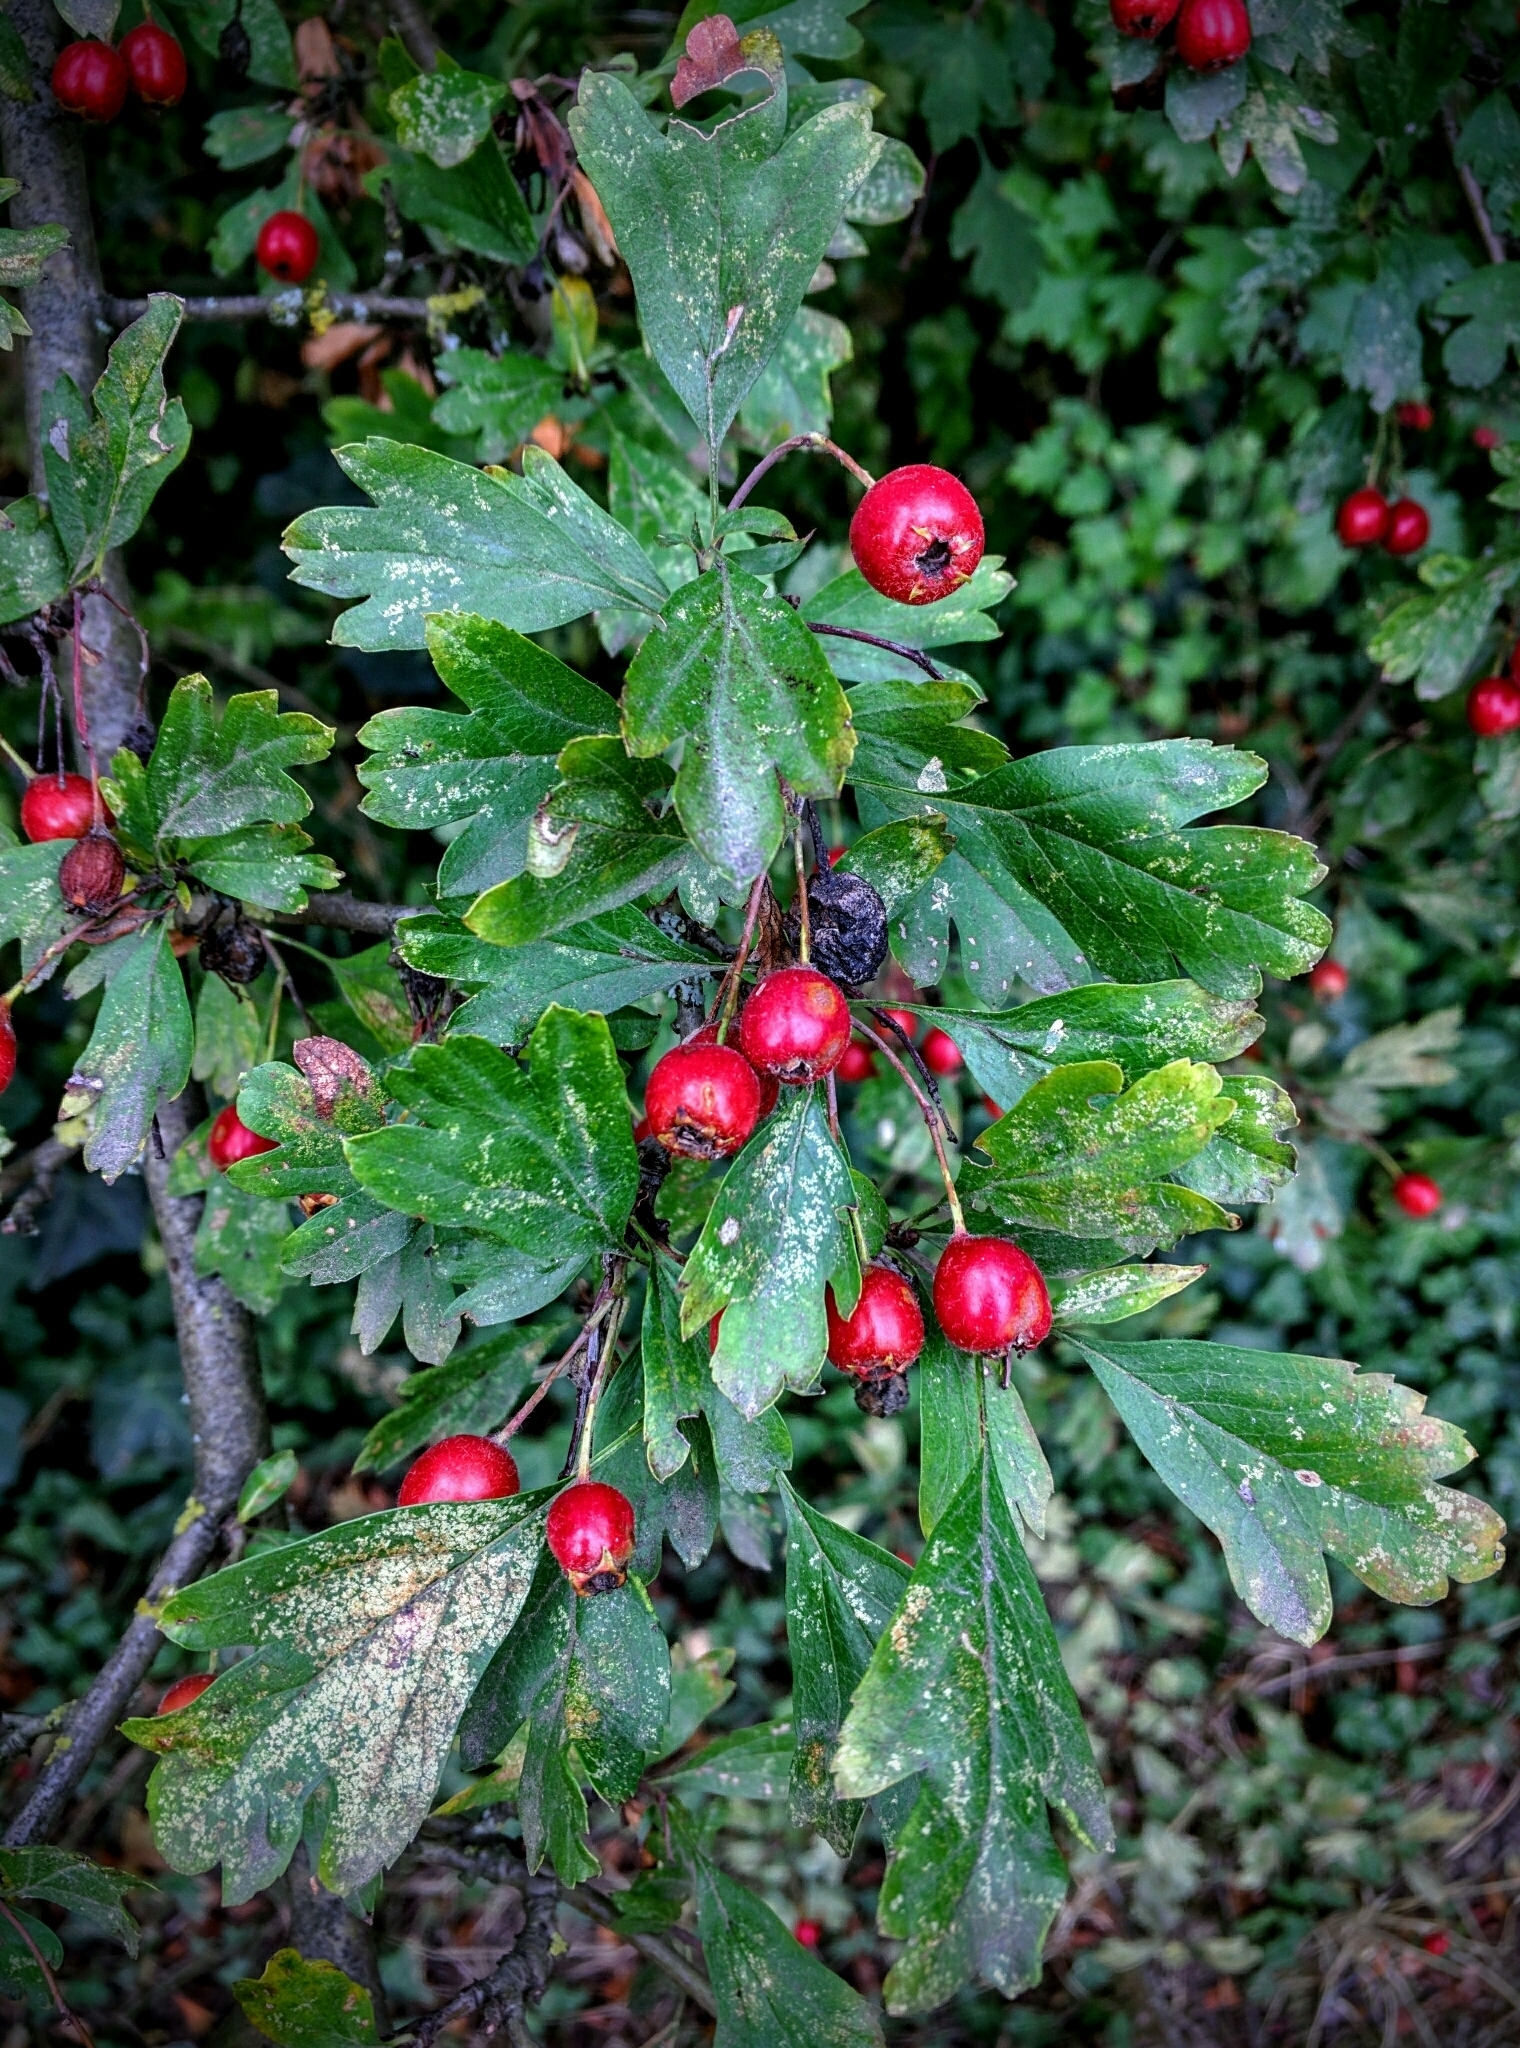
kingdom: Plantae
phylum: Tracheophyta
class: Magnoliopsida
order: Rosales
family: Rosaceae
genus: Crataegus
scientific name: Crataegus monogyna
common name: Hawthorn
